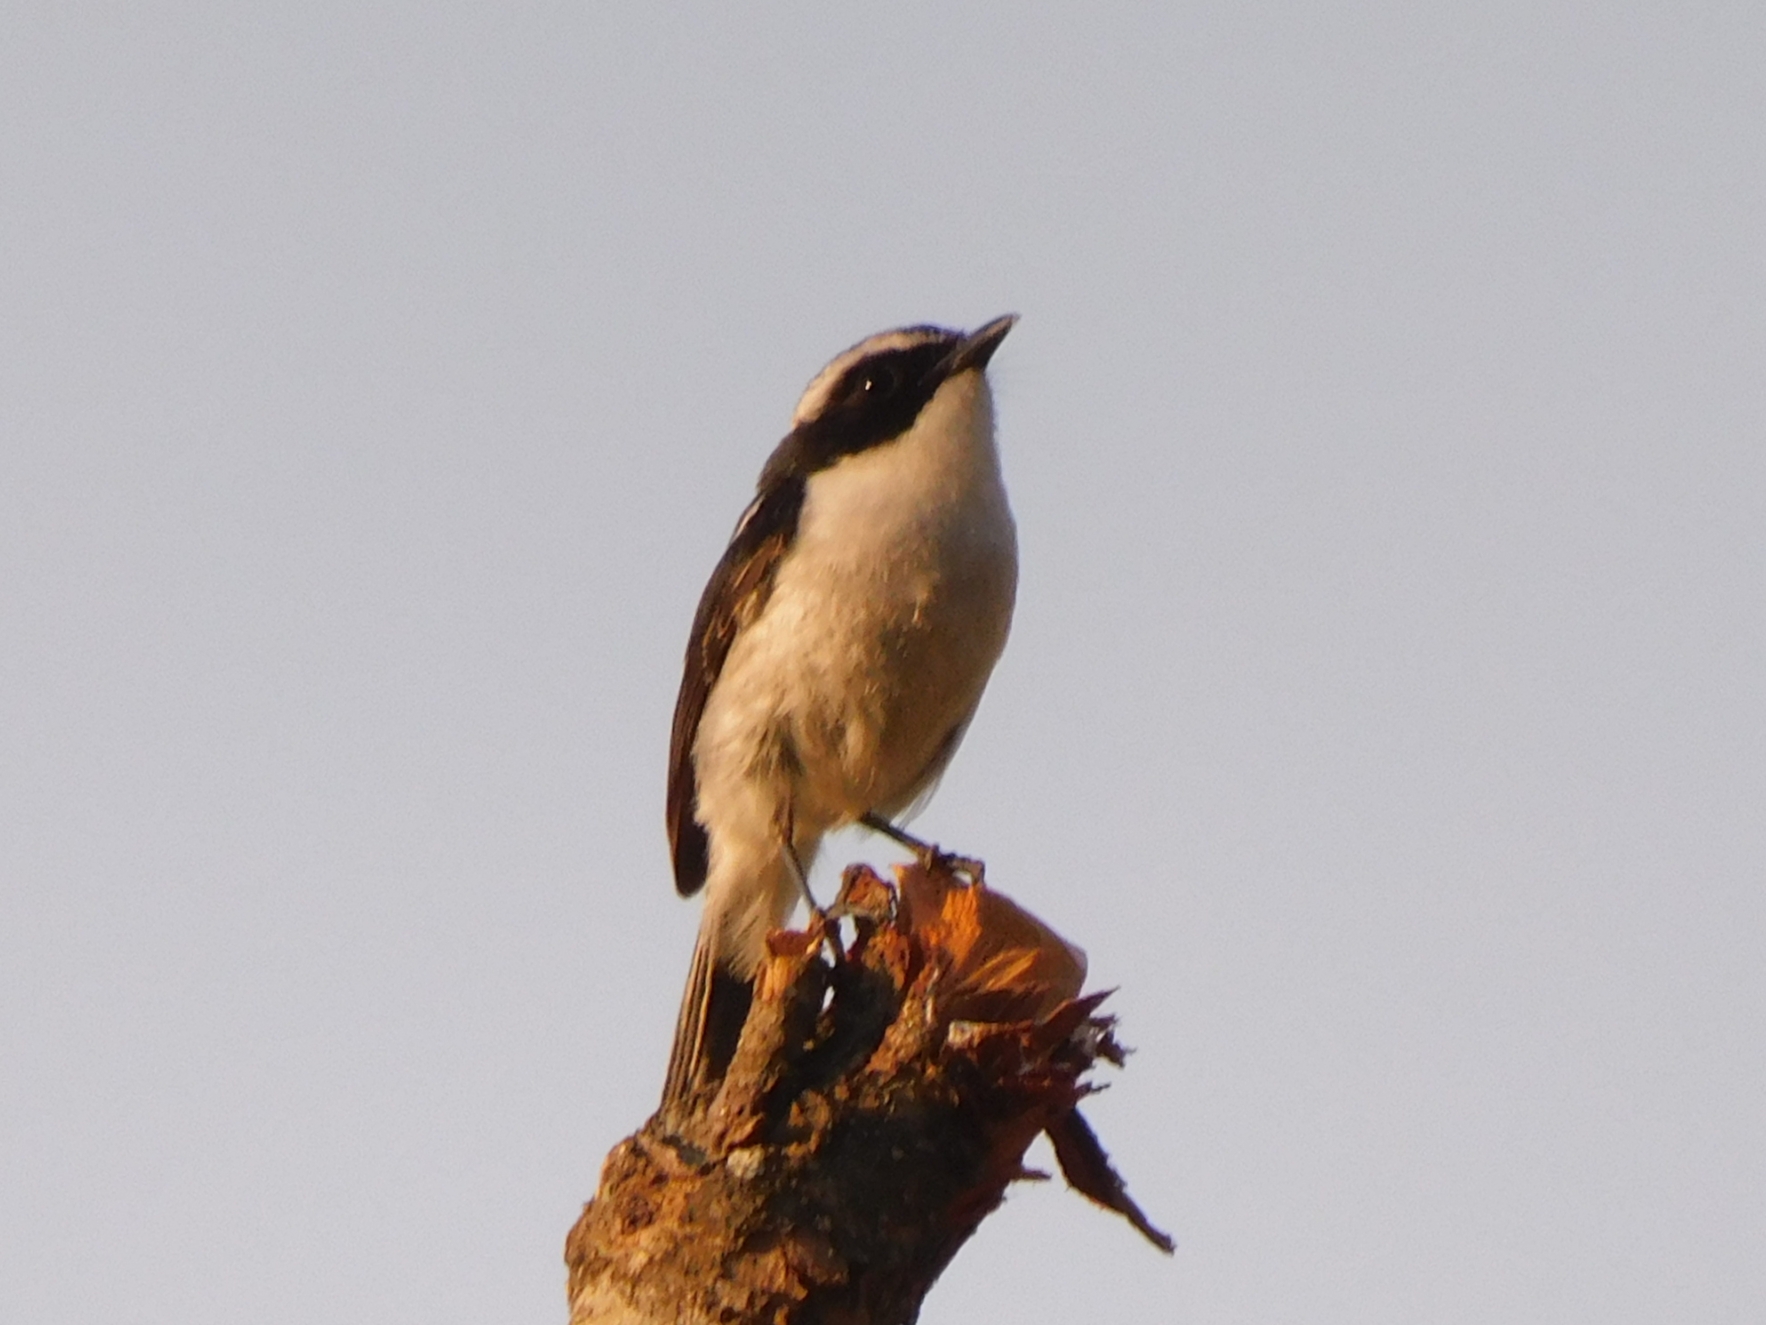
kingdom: Animalia
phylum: Chordata
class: Aves
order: Passeriformes
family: Muscicapidae
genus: Saxicola
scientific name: Saxicola ferreus
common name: Grey bush chat
